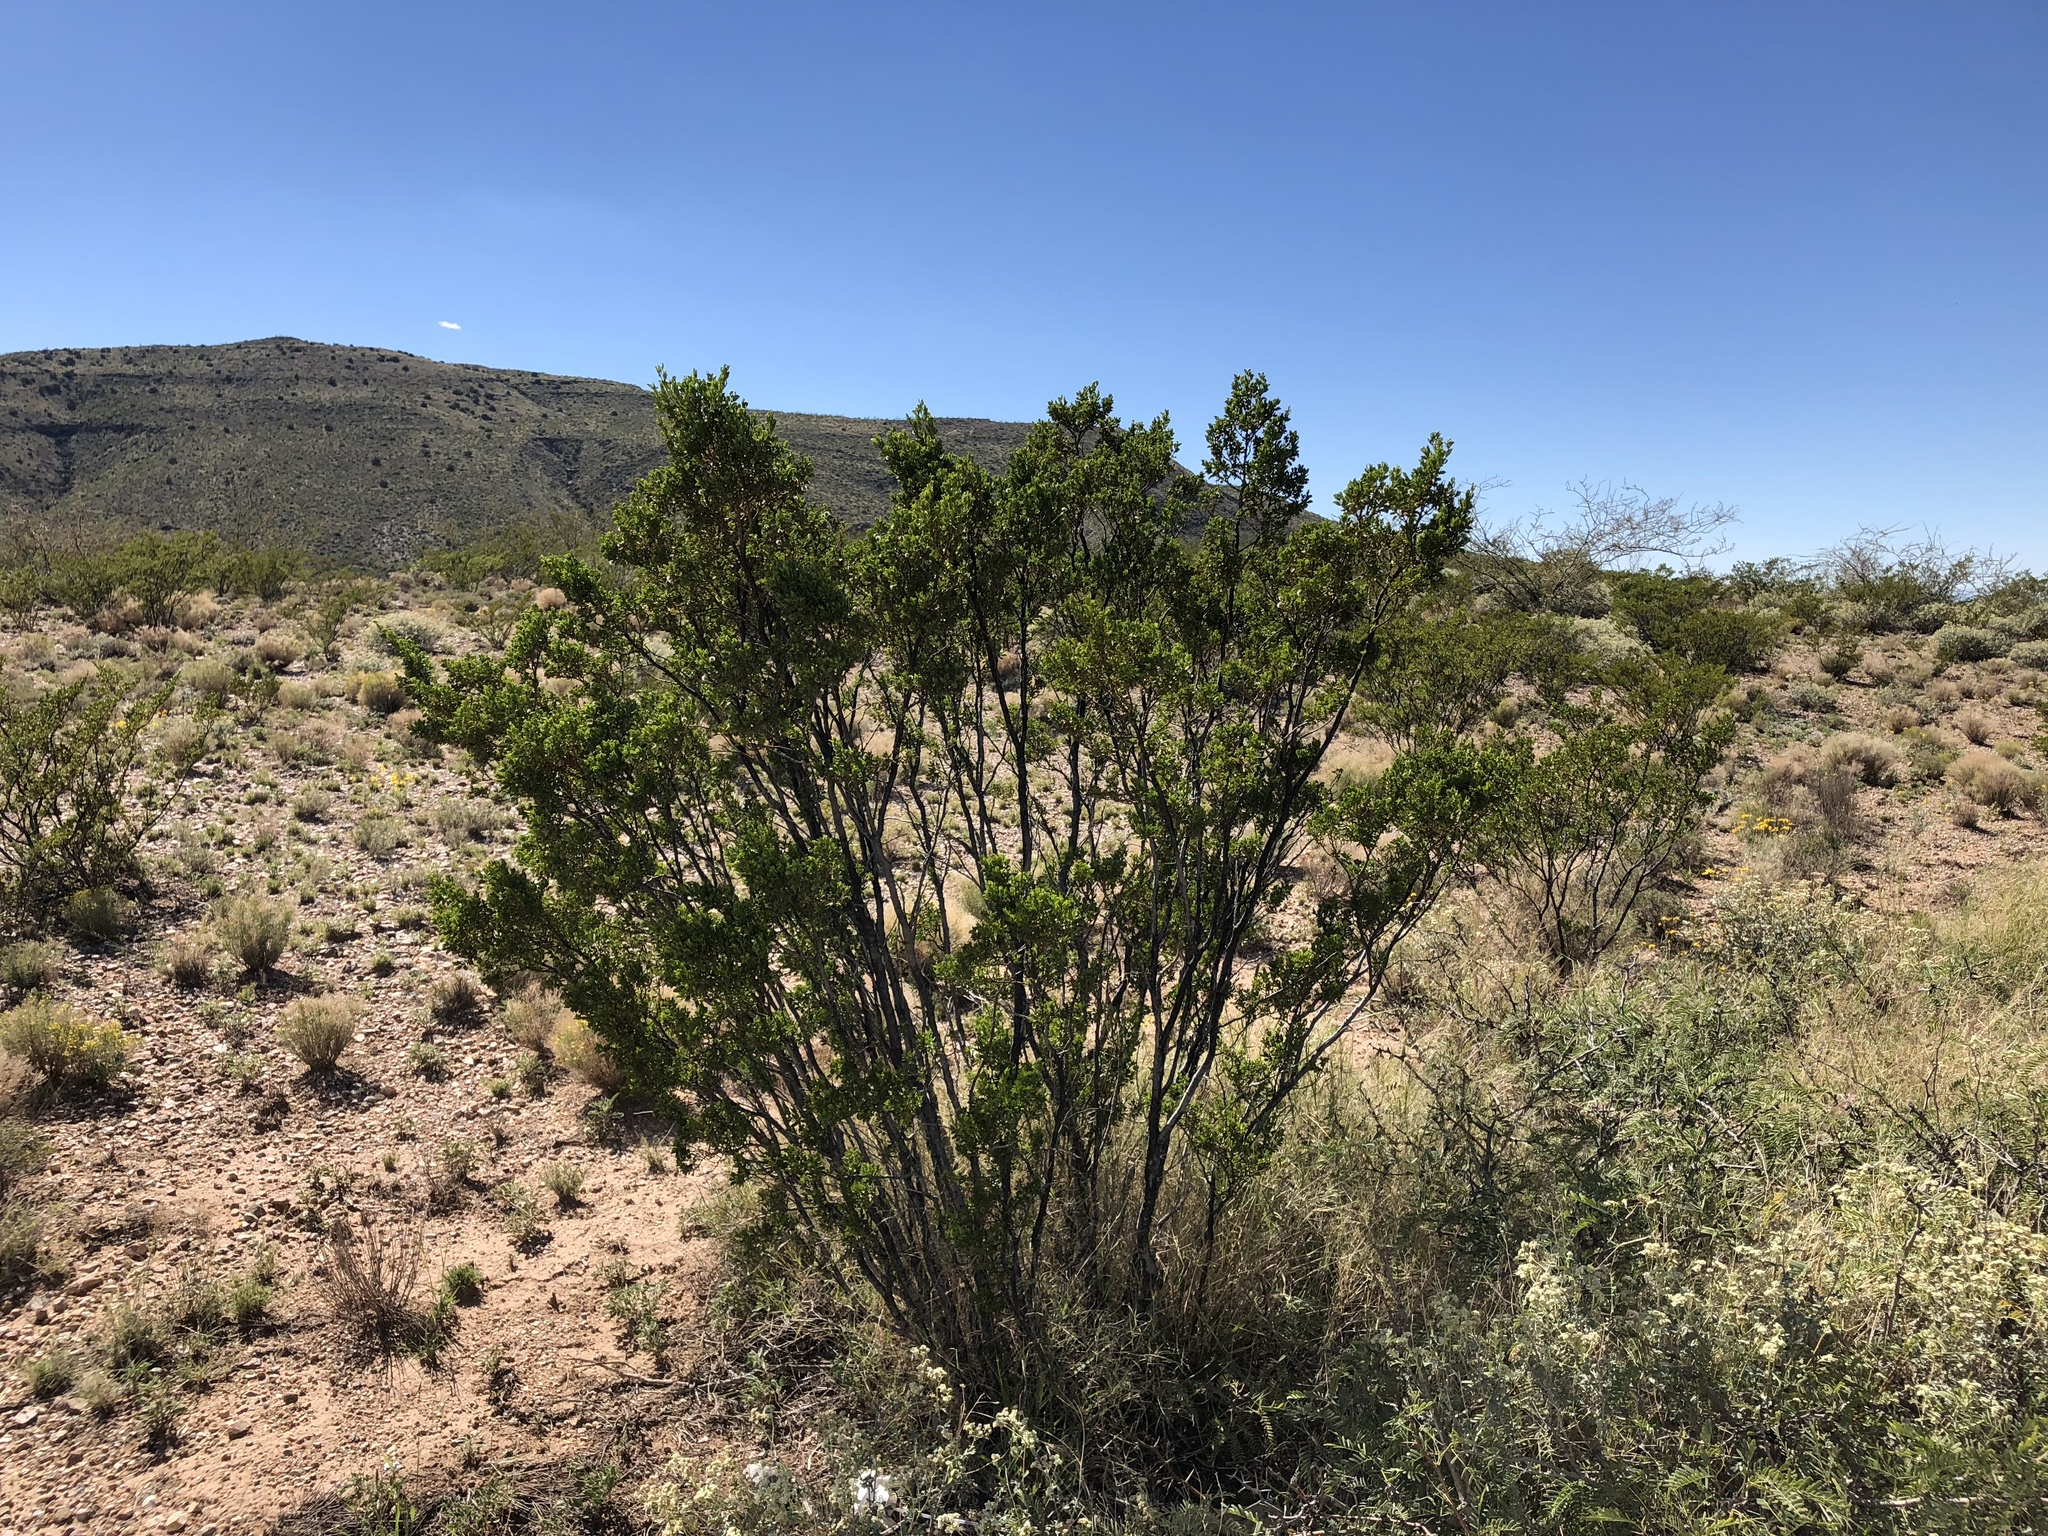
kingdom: Plantae
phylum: Tracheophyta
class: Magnoliopsida
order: Zygophyllales
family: Zygophyllaceae
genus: Larrea
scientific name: Larrea tridentata
